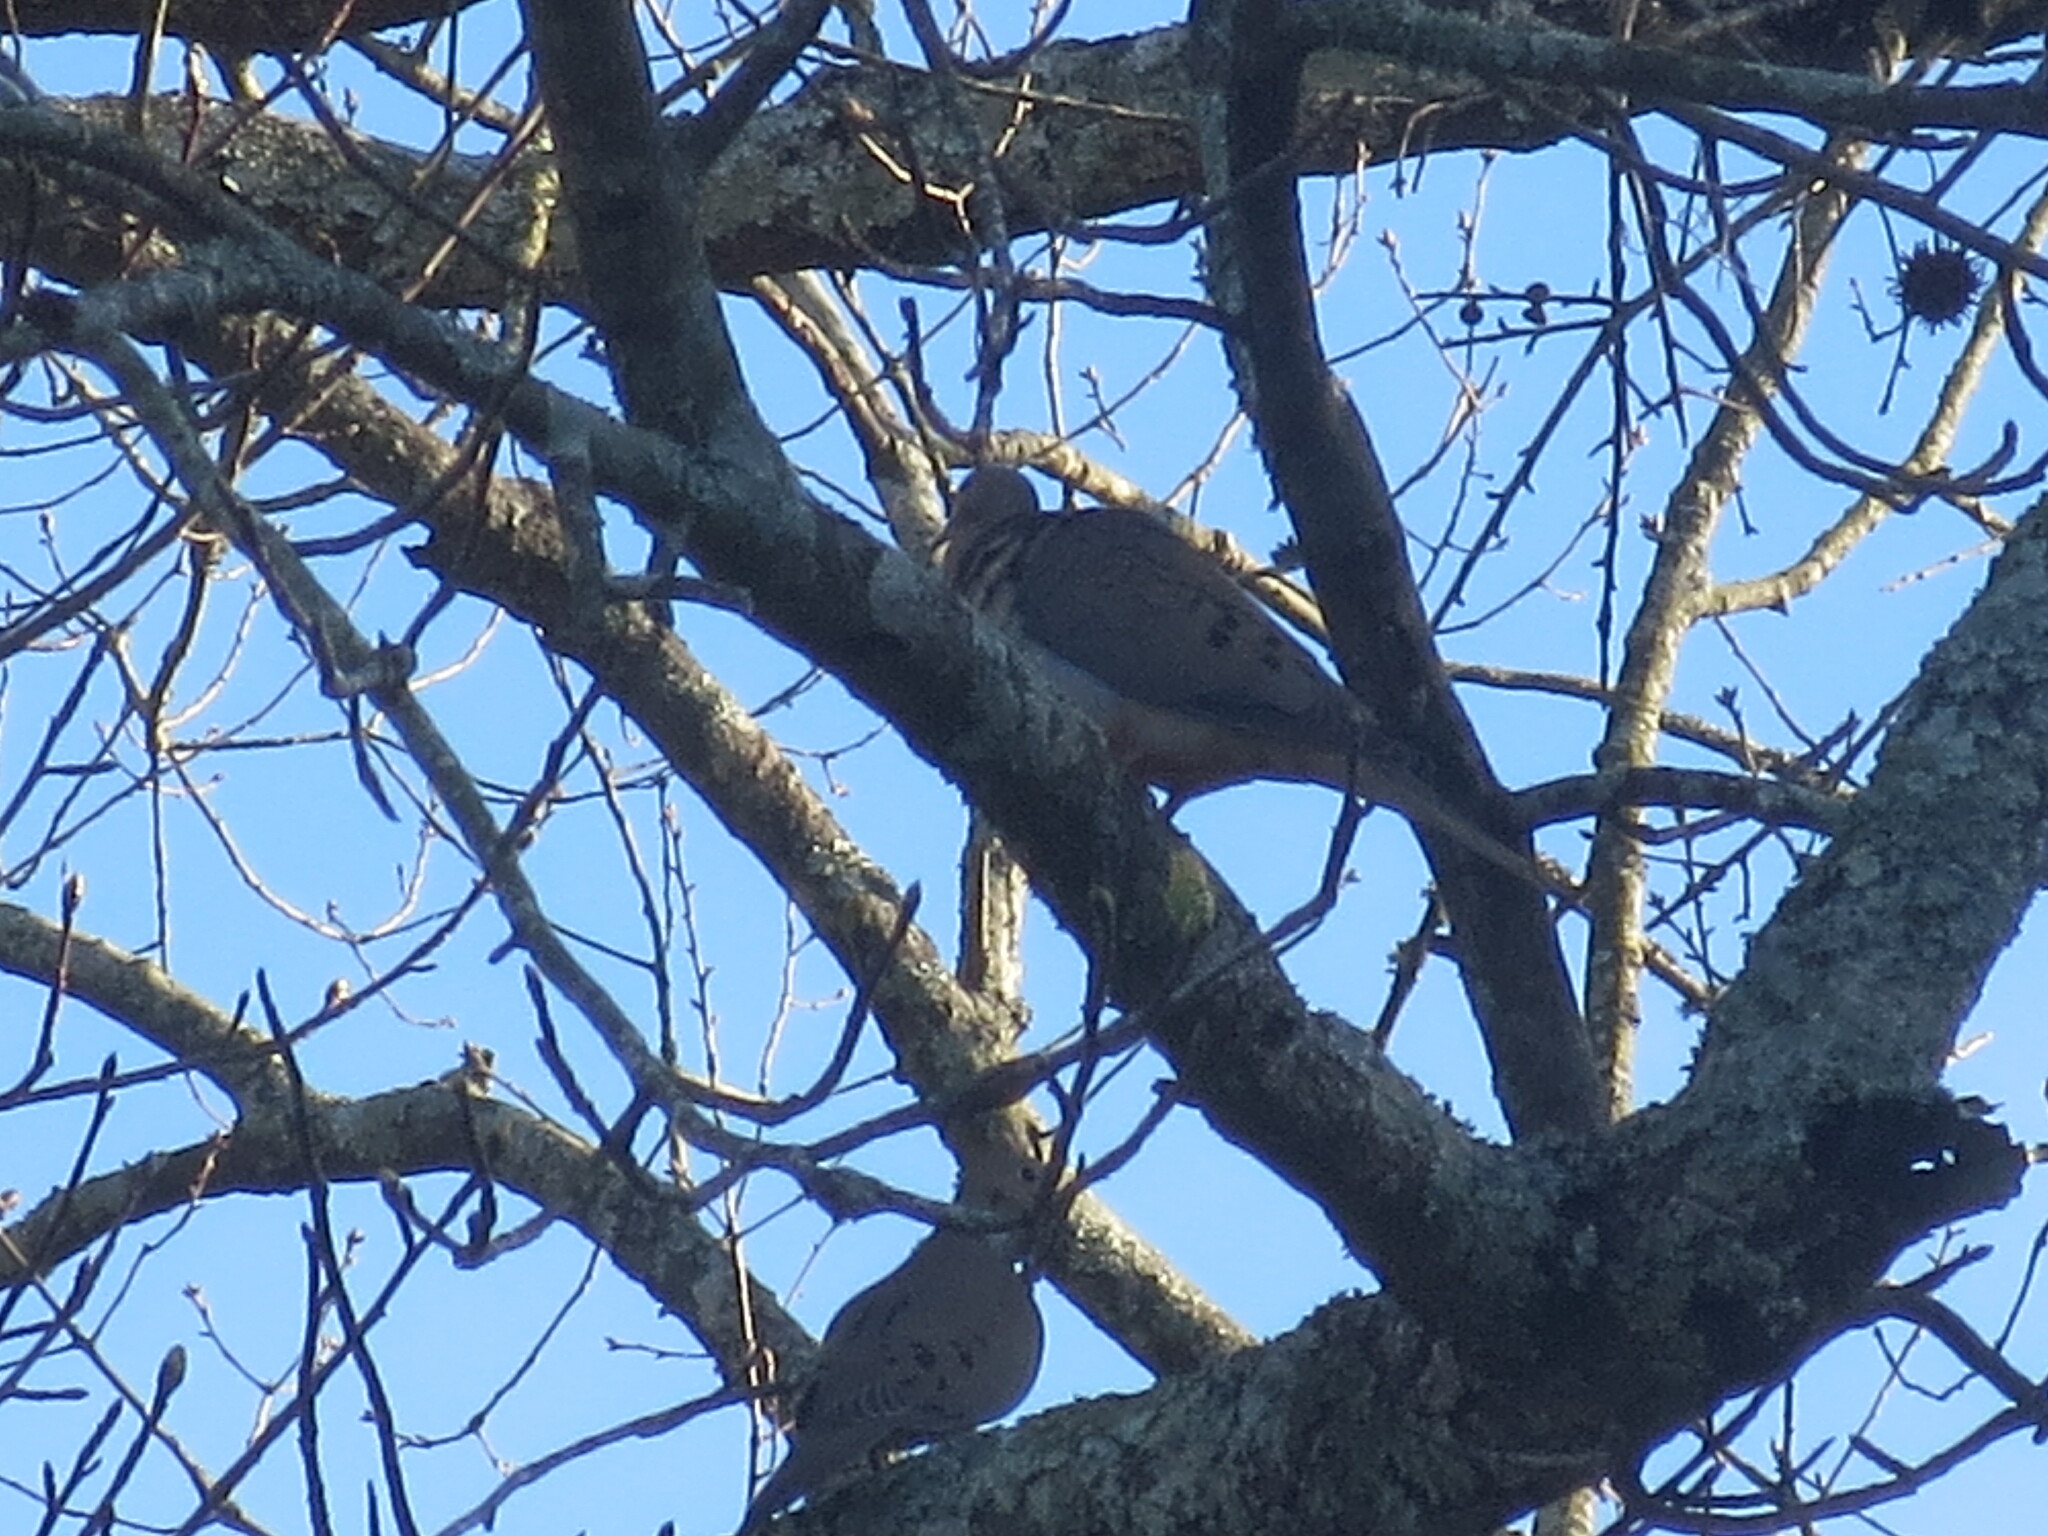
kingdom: Animalia
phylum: Chordata
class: Aves
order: Columbiformes
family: Columbidae
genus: Zenaida
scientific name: Zenaida macroura
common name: Mourning dove
